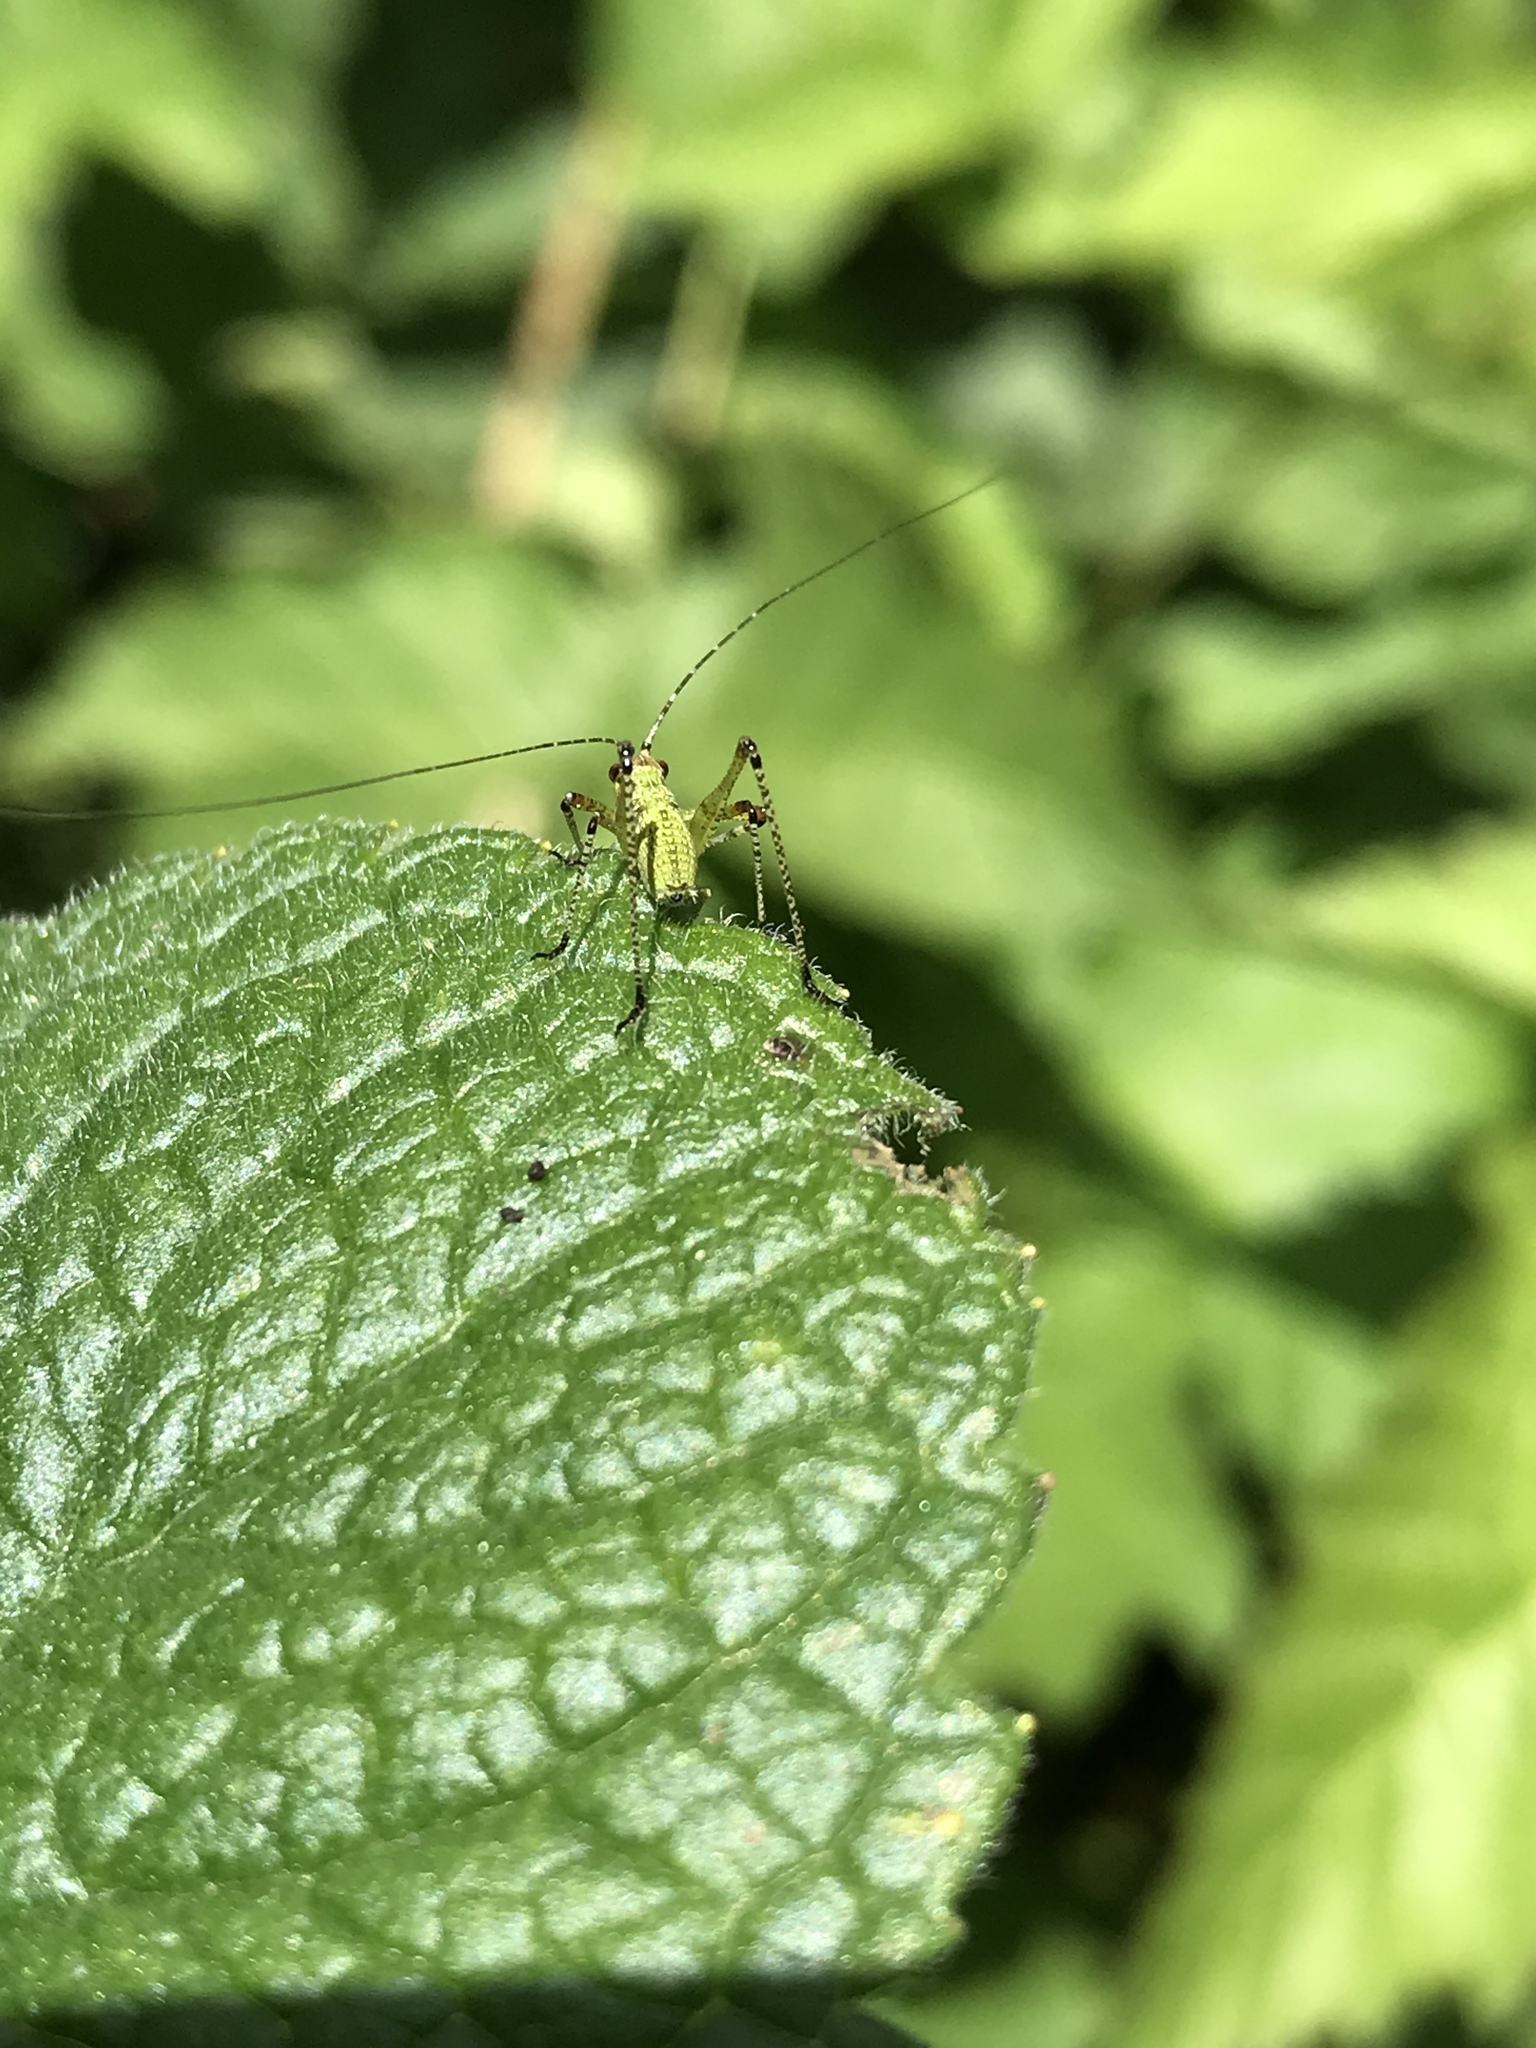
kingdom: Animalia
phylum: Arthropoda
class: Insecta
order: Orthoptera
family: Tettigoniidae
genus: Phaneroptera
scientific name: Phaneroptera nana
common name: Southern sickle bush-cricket
